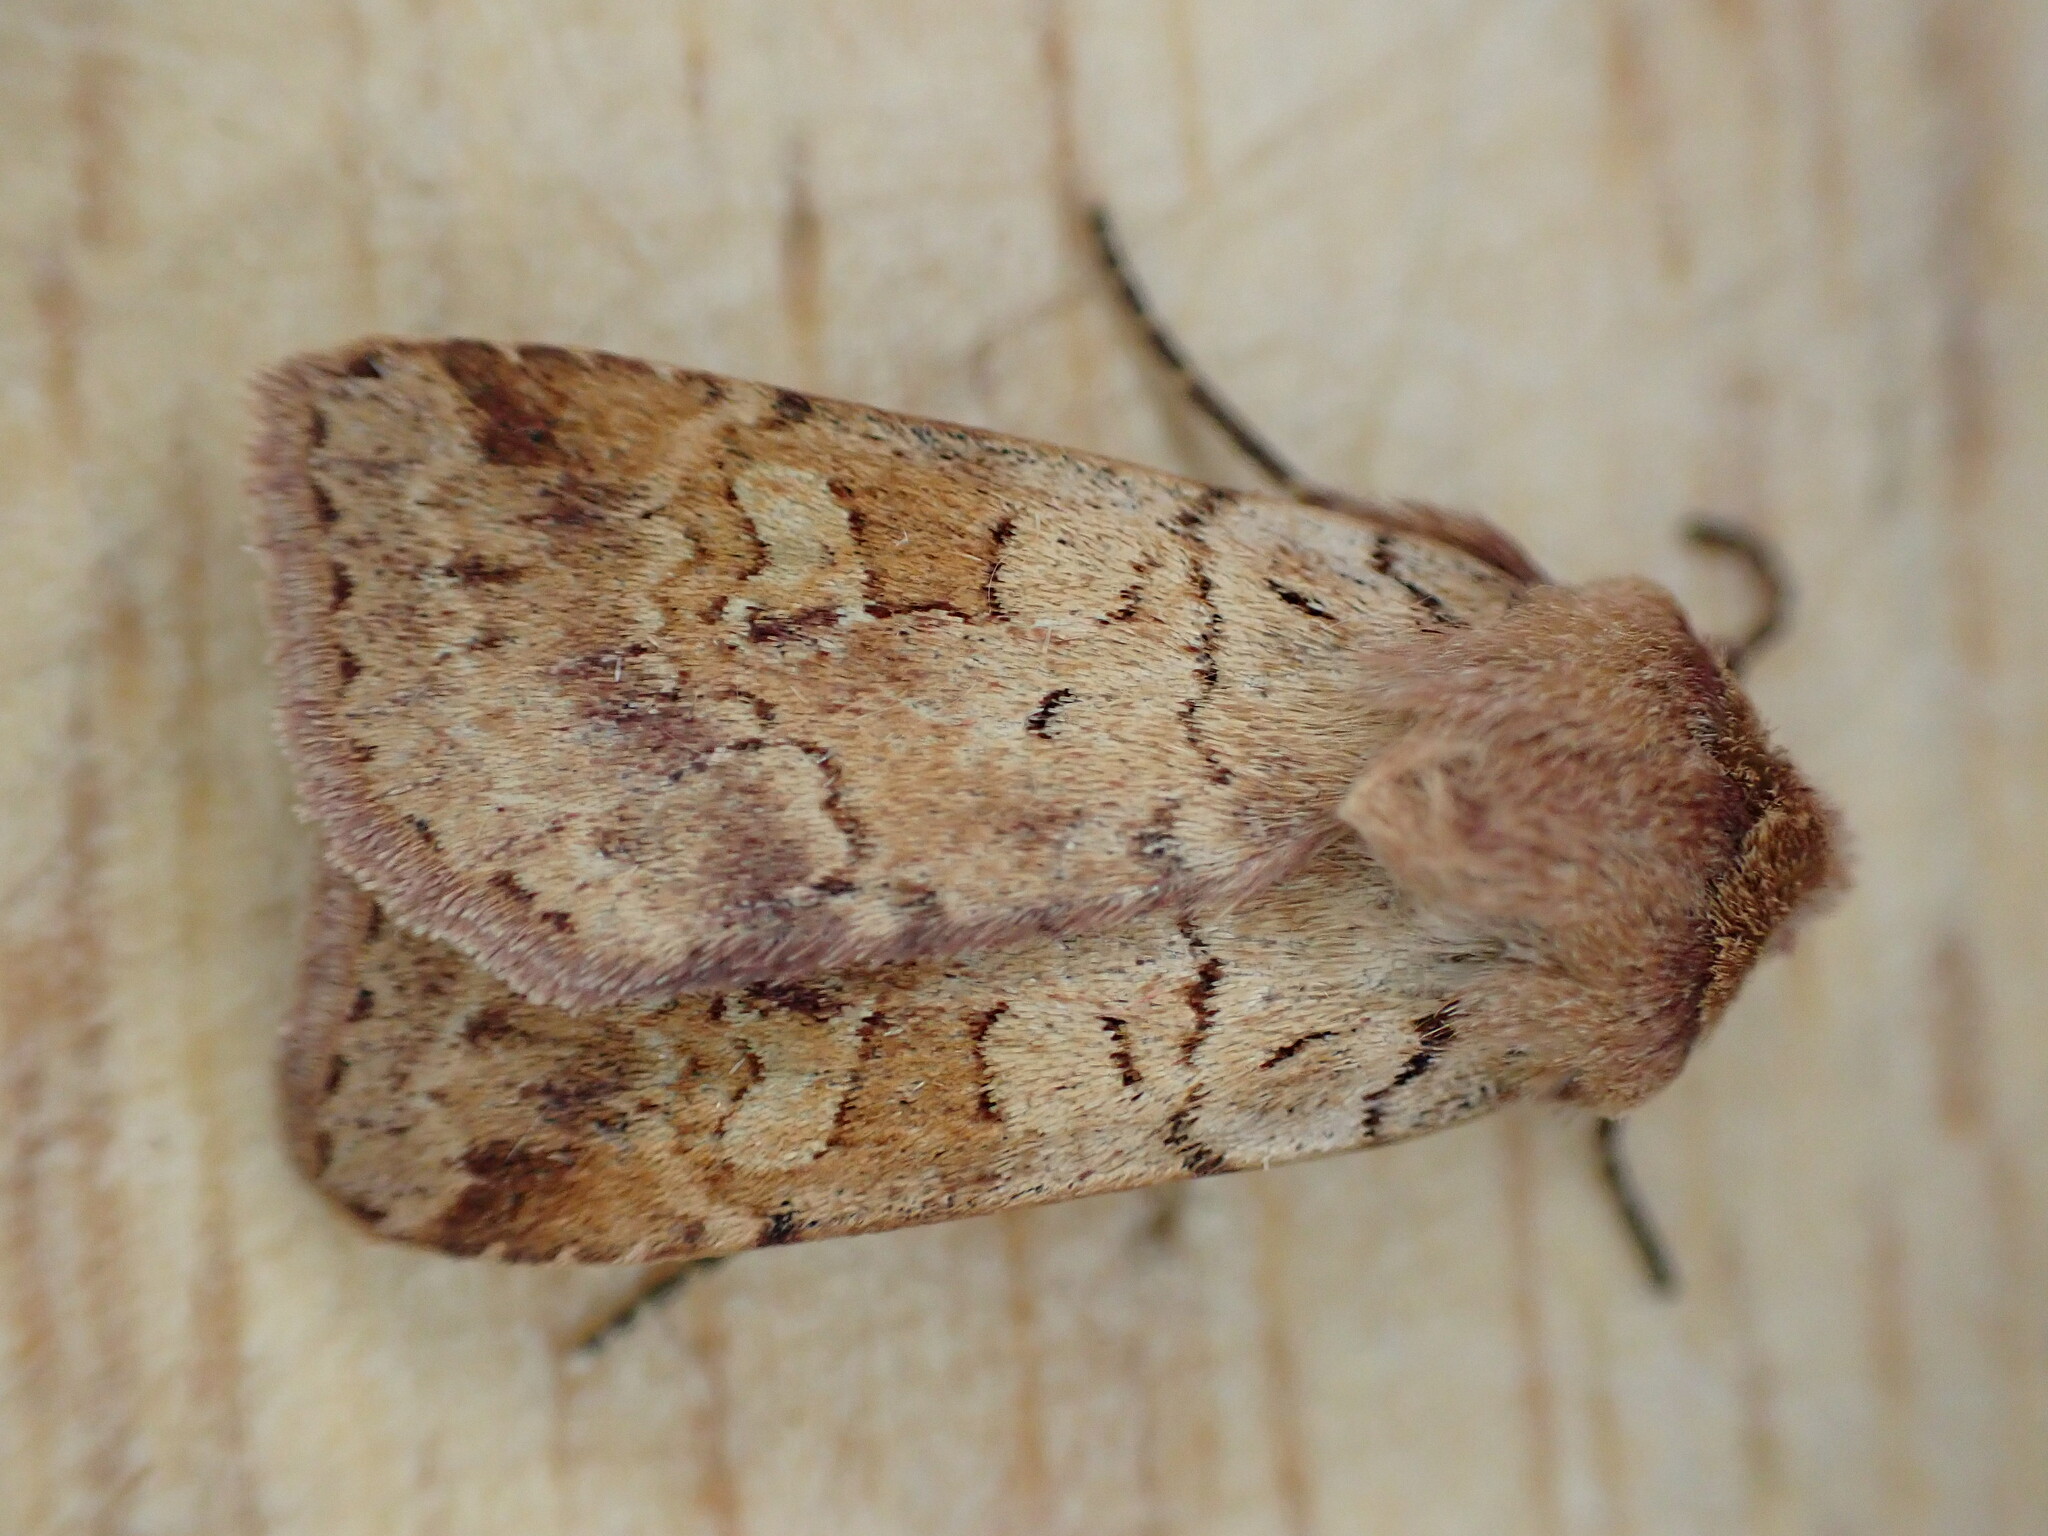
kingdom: Animalia
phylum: Arthropoda
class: Insecta
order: Lepidoptera
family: Noctuidae
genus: Diarsia
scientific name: Diarsia mendica
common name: Ingrailed clay
